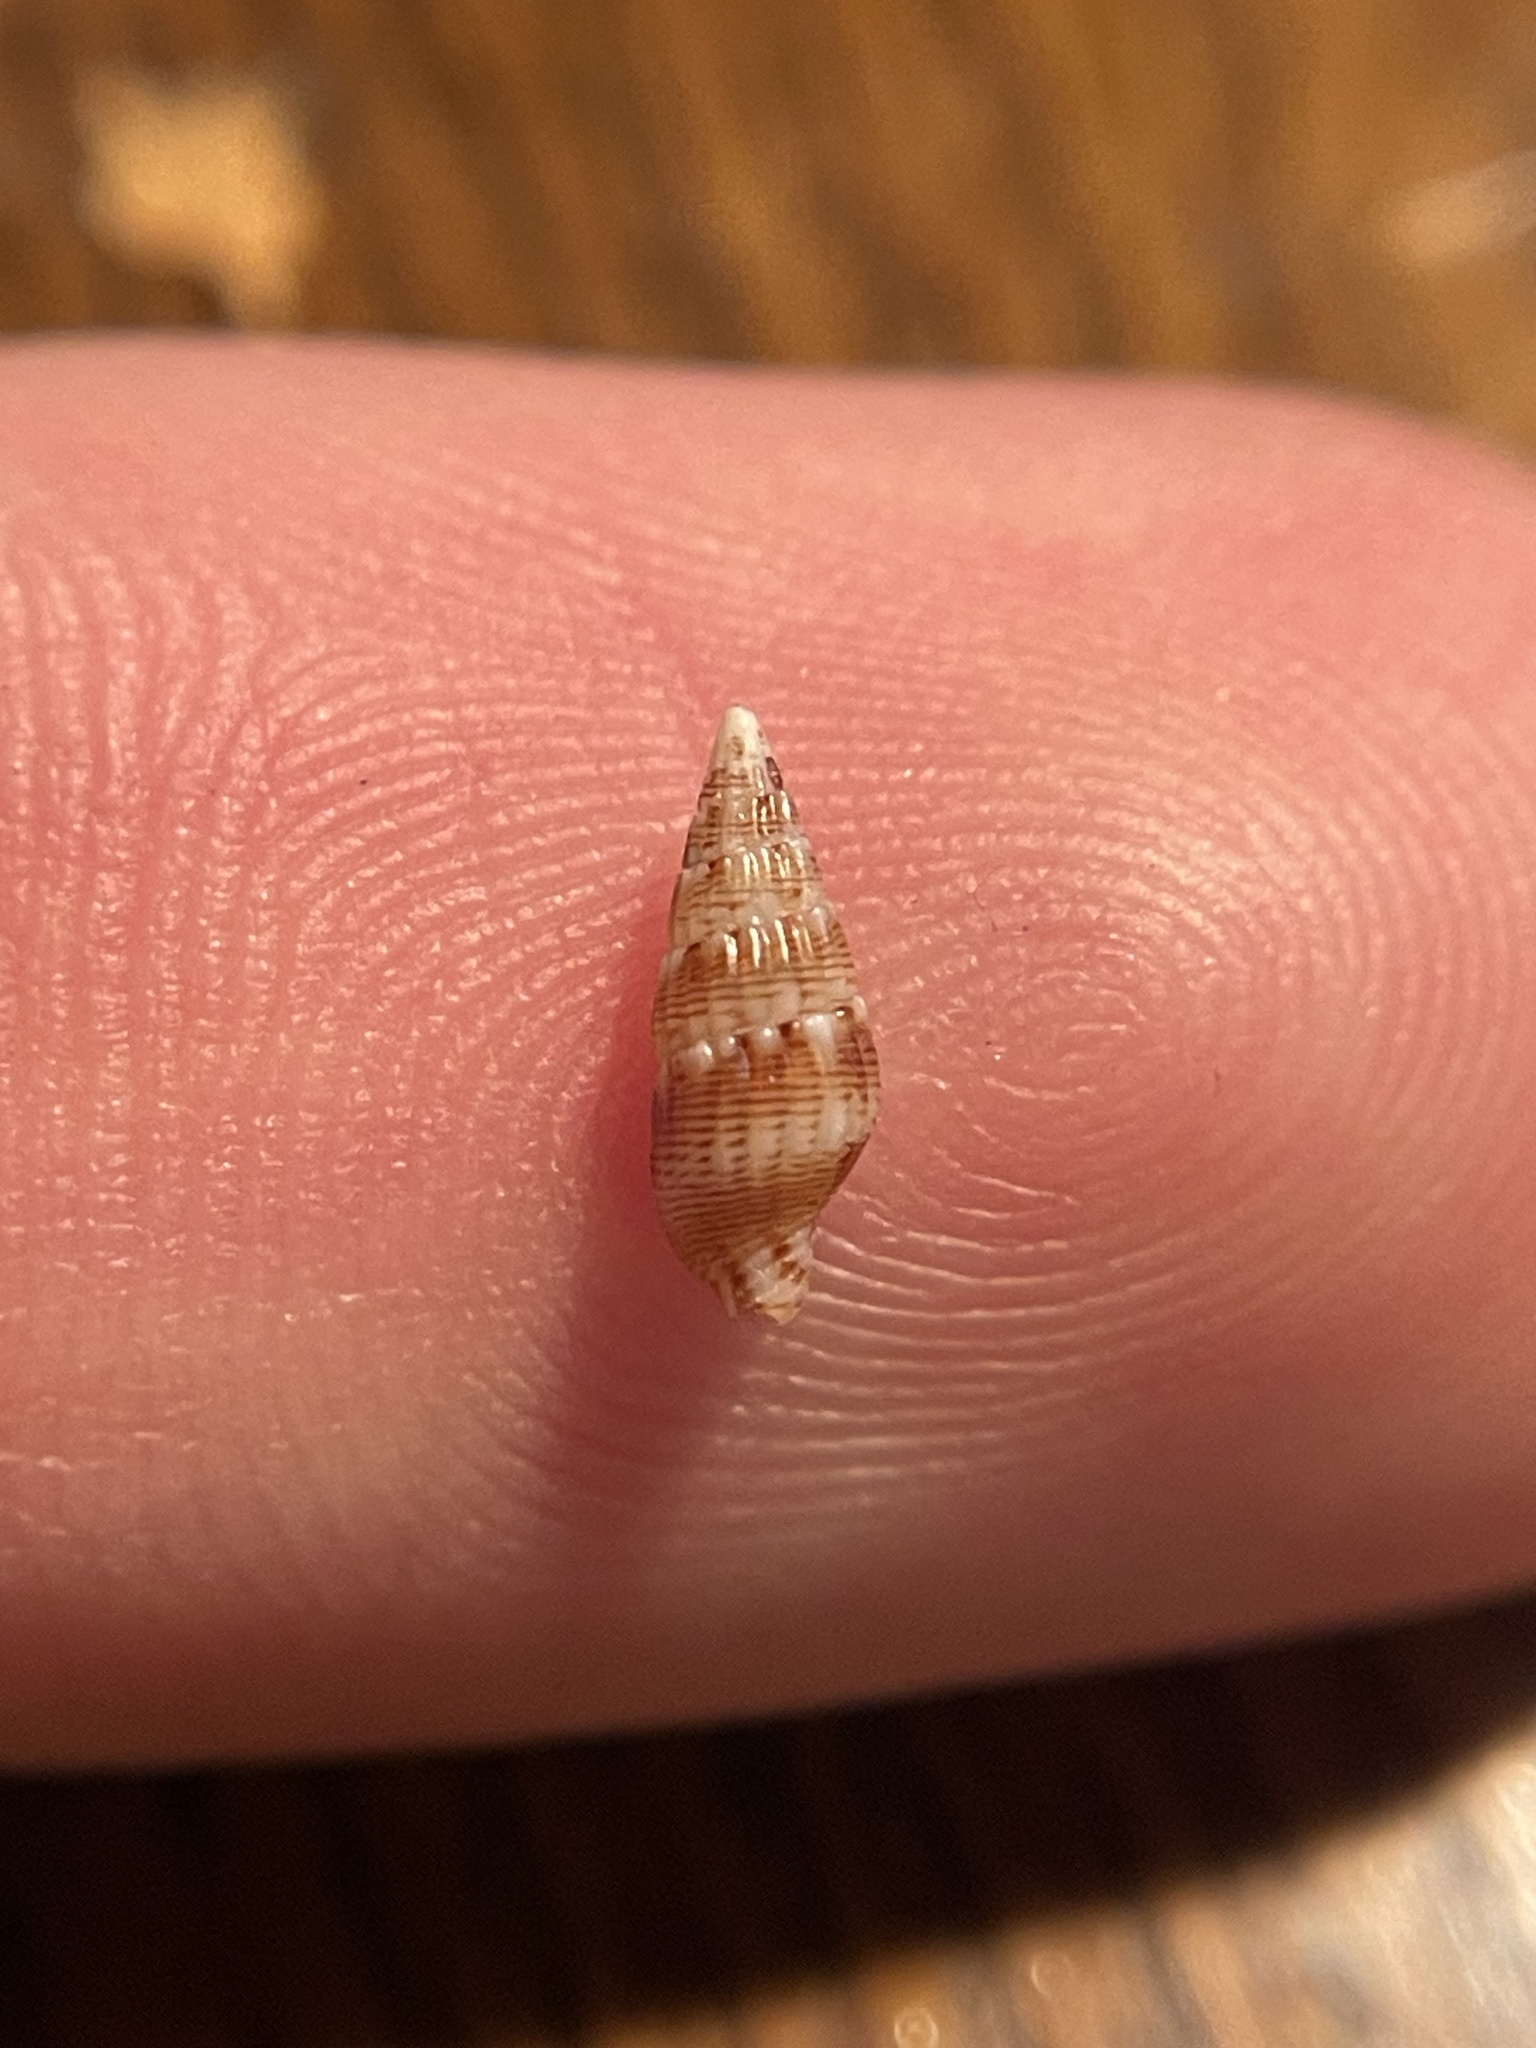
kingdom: Animalia
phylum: Mollusca
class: Gastropoda
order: Neogastropoda
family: Columbellidae
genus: Costoanachis
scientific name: Costoanachis sparsa
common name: Sparse dovesnail
